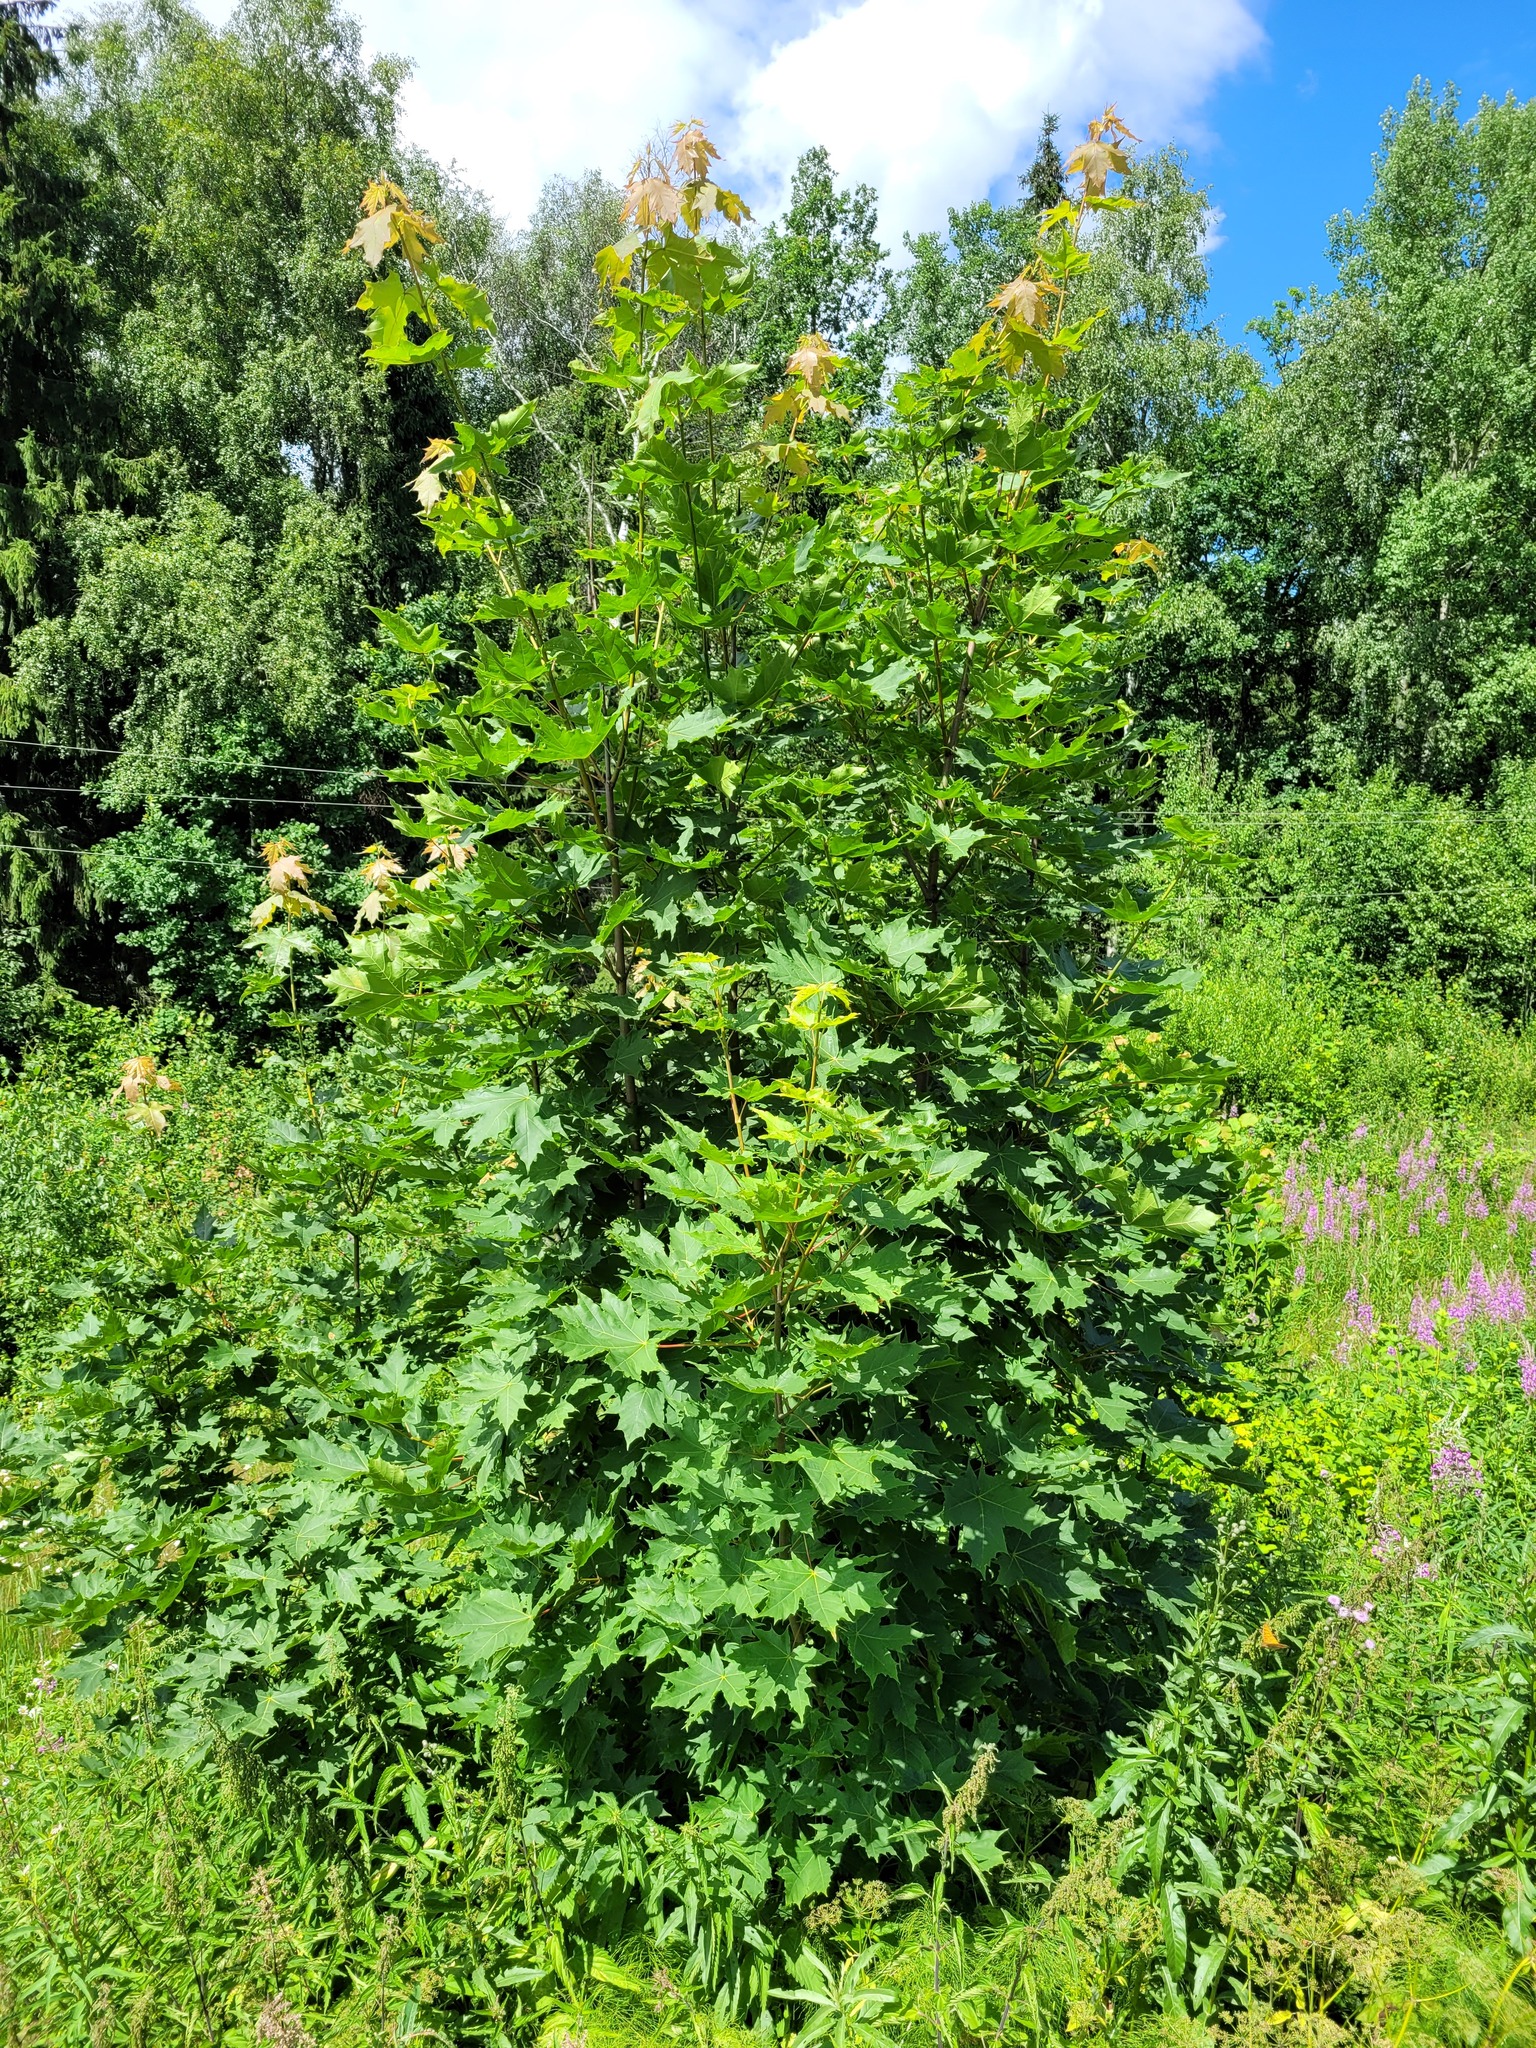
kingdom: Plantae
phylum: Tracheophyta
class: Magnoliopsida
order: Sapindales
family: Sapindaceae
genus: Acer
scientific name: Acer platanoides
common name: Norway maple
